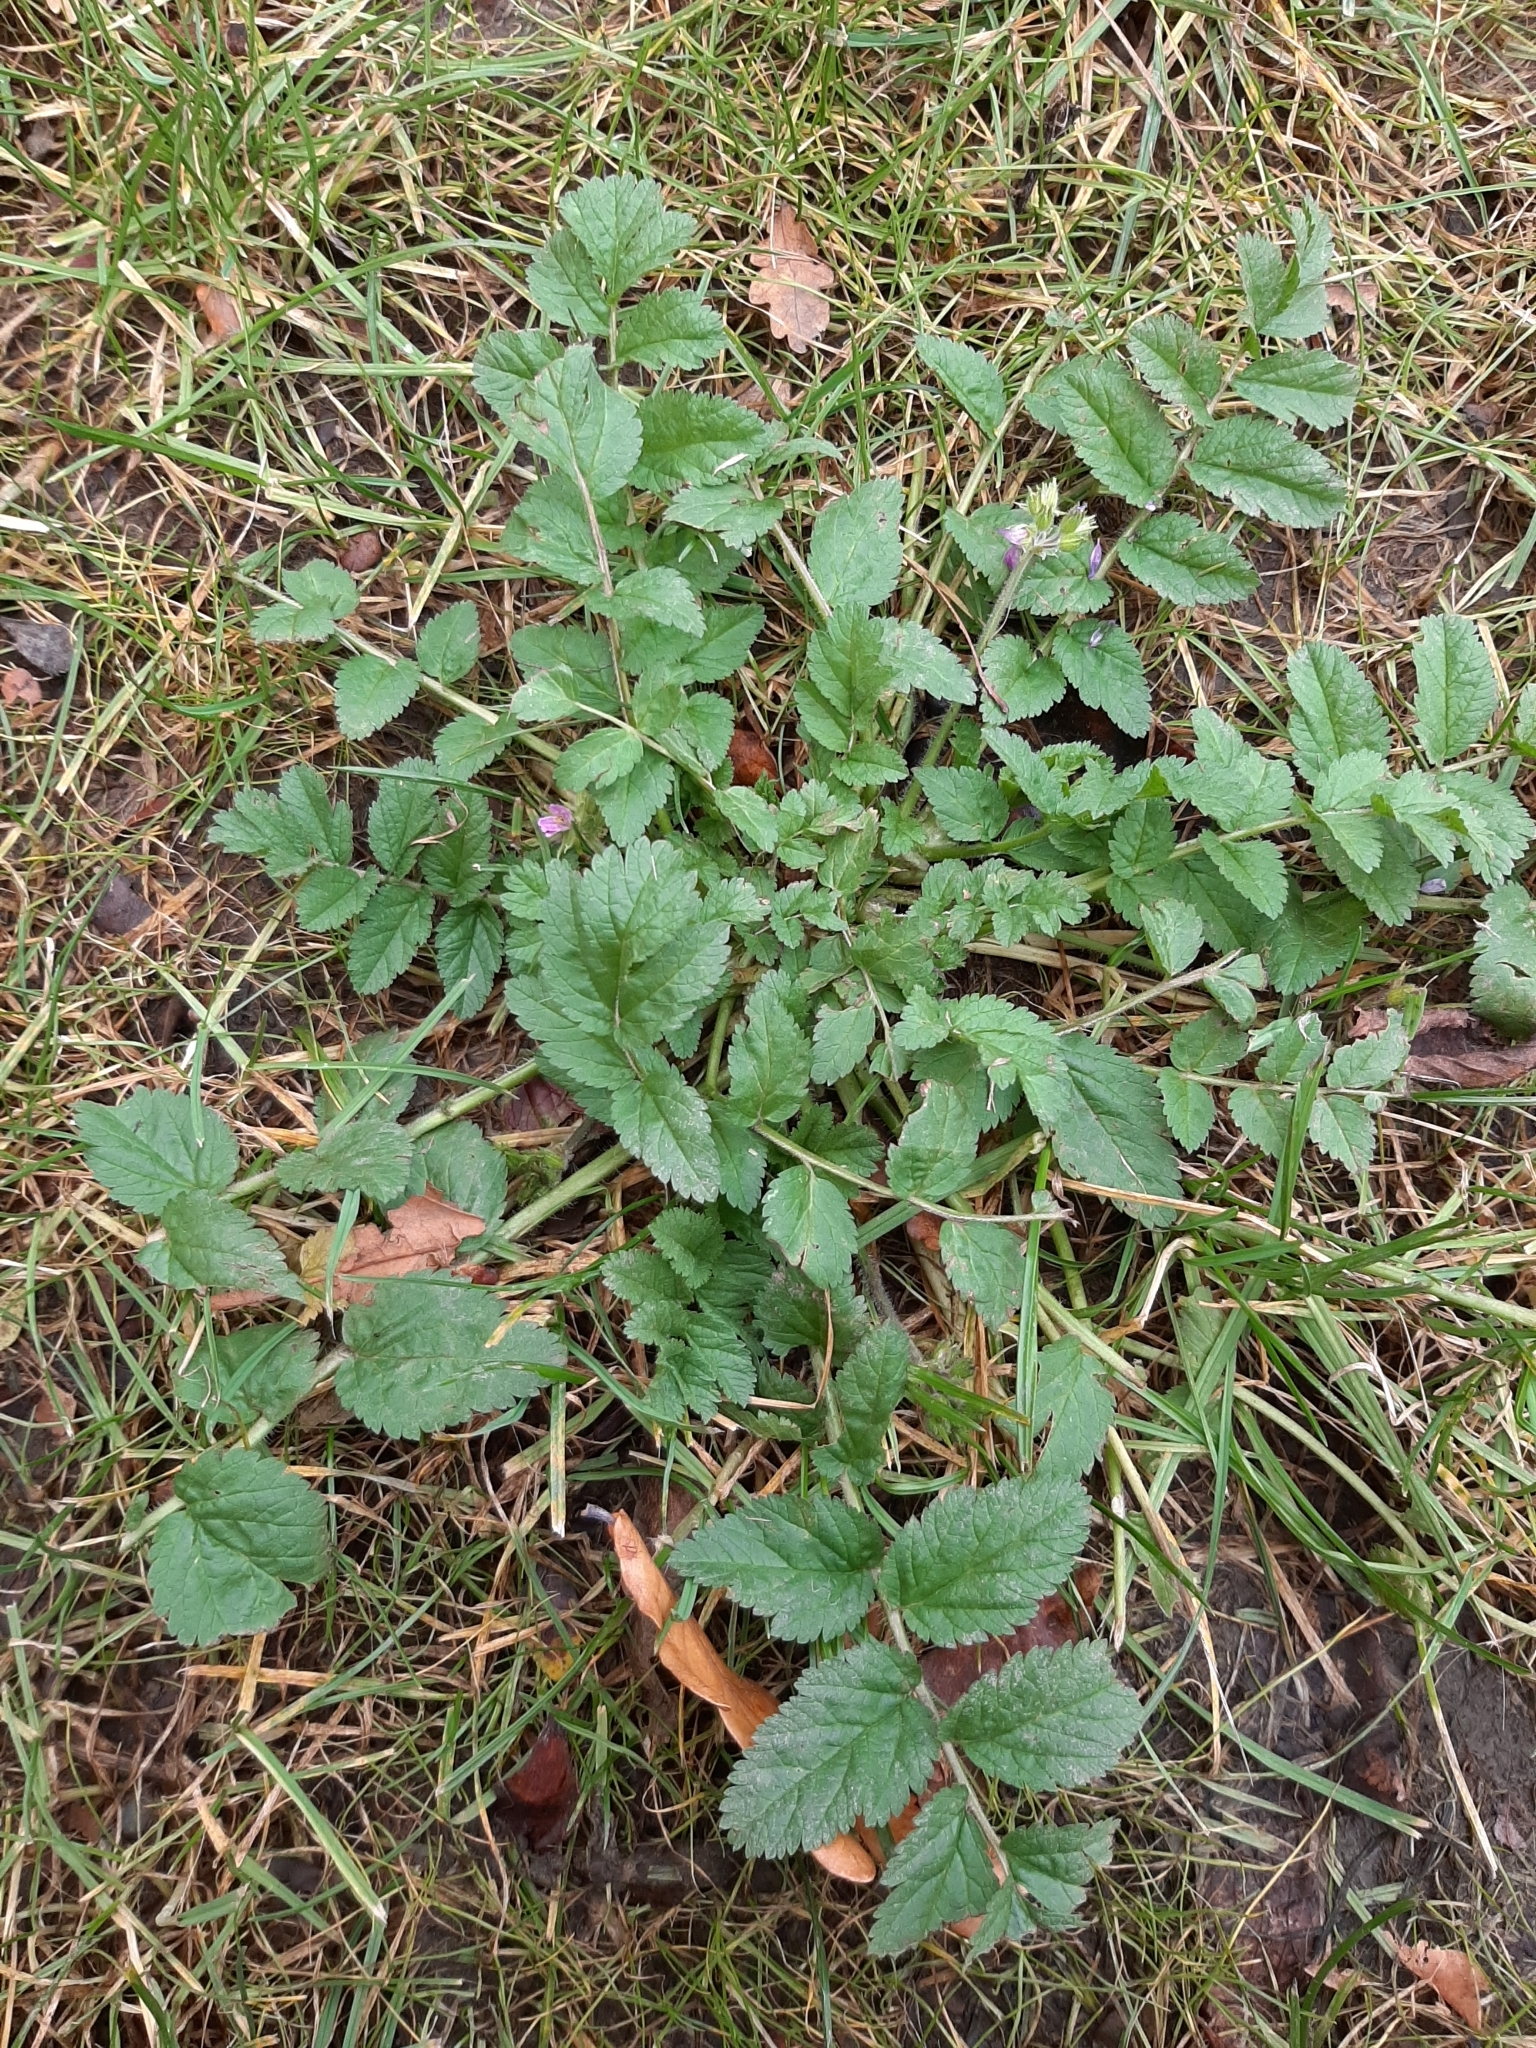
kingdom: Plantae
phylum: Tracheophyta
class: Magnoliopsida
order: Geraniales
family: Geraniaceae
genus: Erodium
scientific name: Erodium moschatum
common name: Musk stork's-bill
